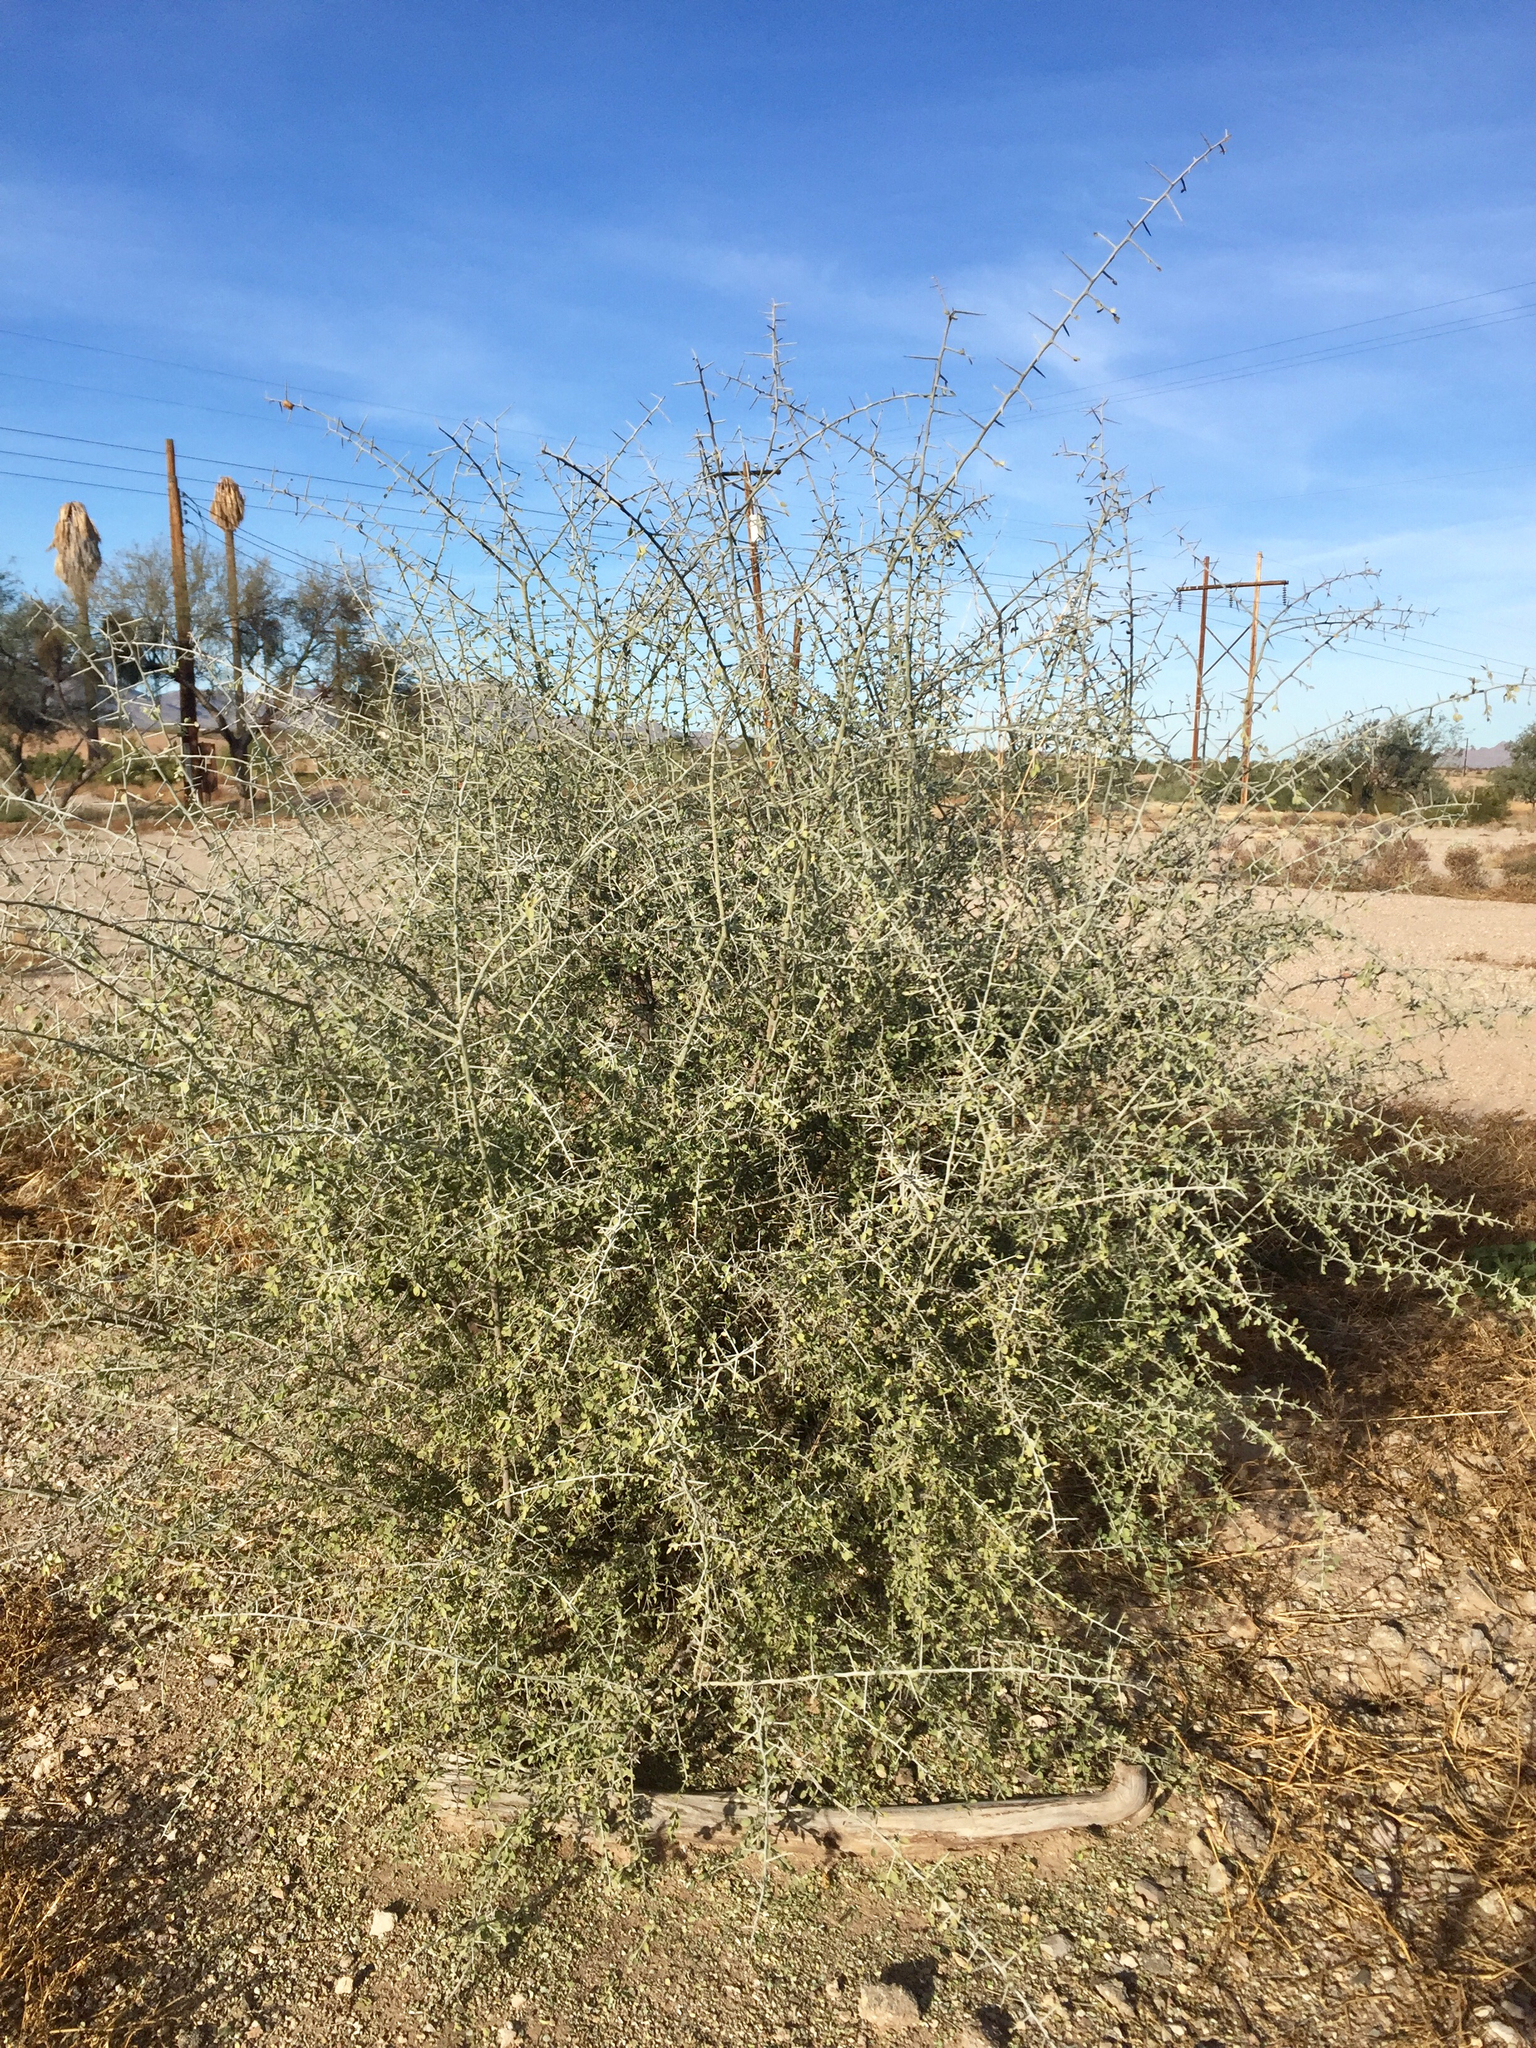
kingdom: Plantae
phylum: Tracheophyta
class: Magnoliopsida
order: Rosales
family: Rhamnaceae
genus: Sarcomphalus
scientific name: Sarcomphalus obtusifolius
